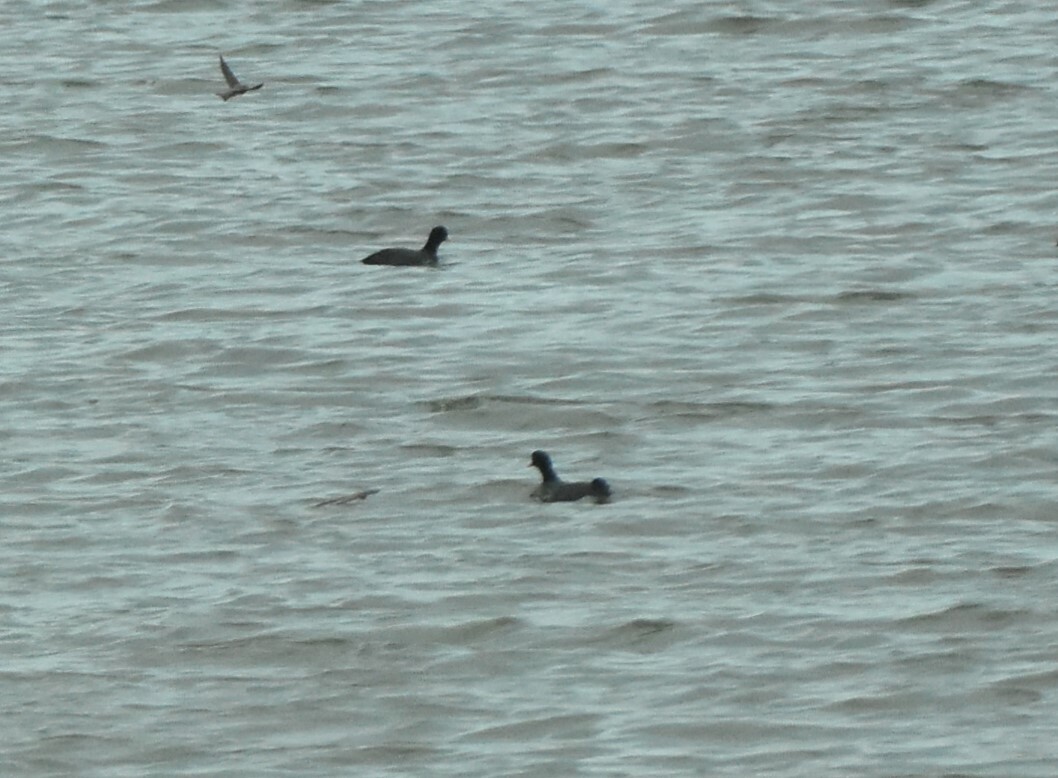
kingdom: Animalia
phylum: Chordata
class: Aves
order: Gruiformes
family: Rallidae
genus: Fulica
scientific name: Fulica atra
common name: Eurasian coot
